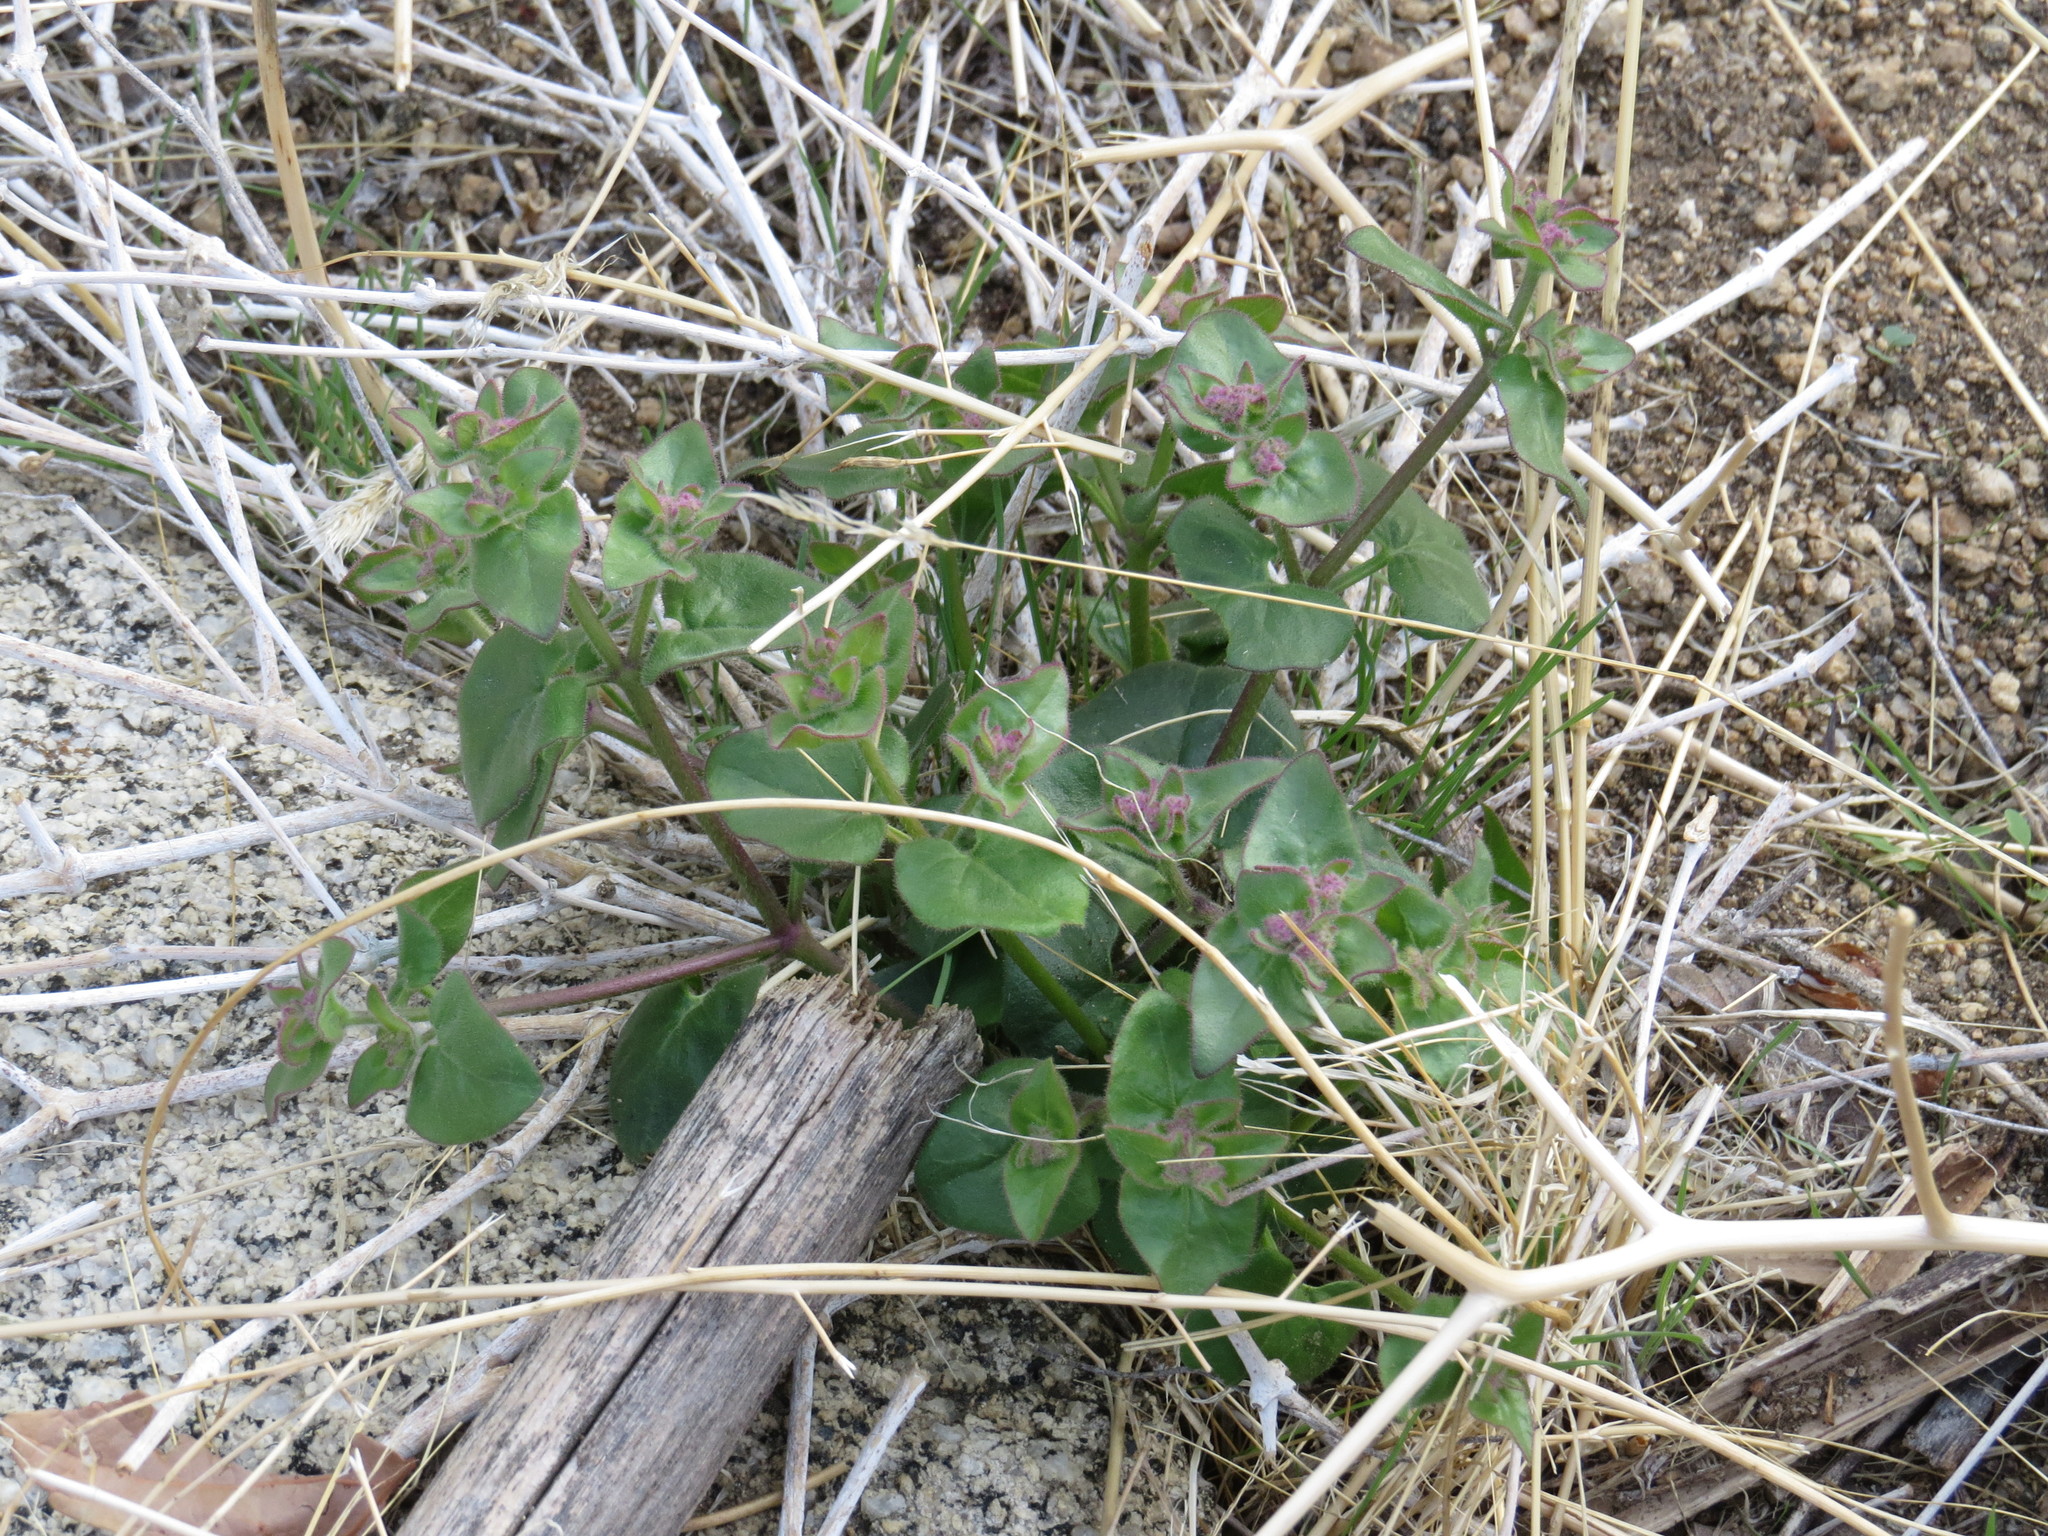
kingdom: Plantae
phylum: Tracheophyta
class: Magnoliopsida
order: Caryophyllales
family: Nyctaginaceae
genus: Mirabilis
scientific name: Mirabilis laevis
